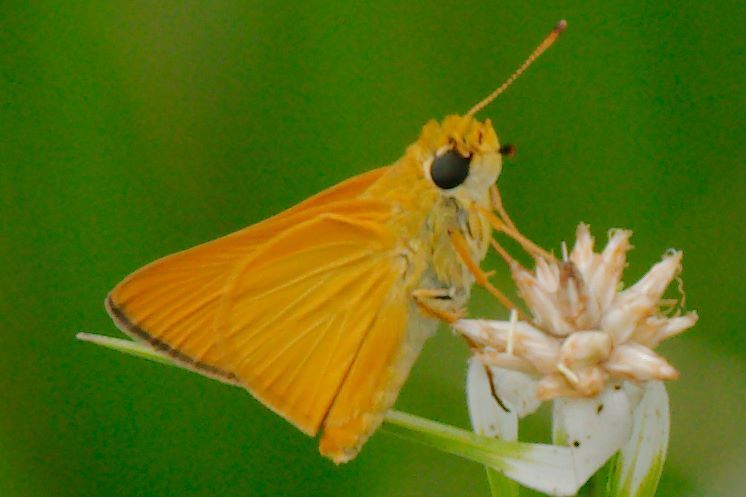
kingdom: Animalia
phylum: Arthropoda
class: Insecta
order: Lepidoptera
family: Hesperiidae
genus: Atrytone
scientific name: Atrytone delaware
